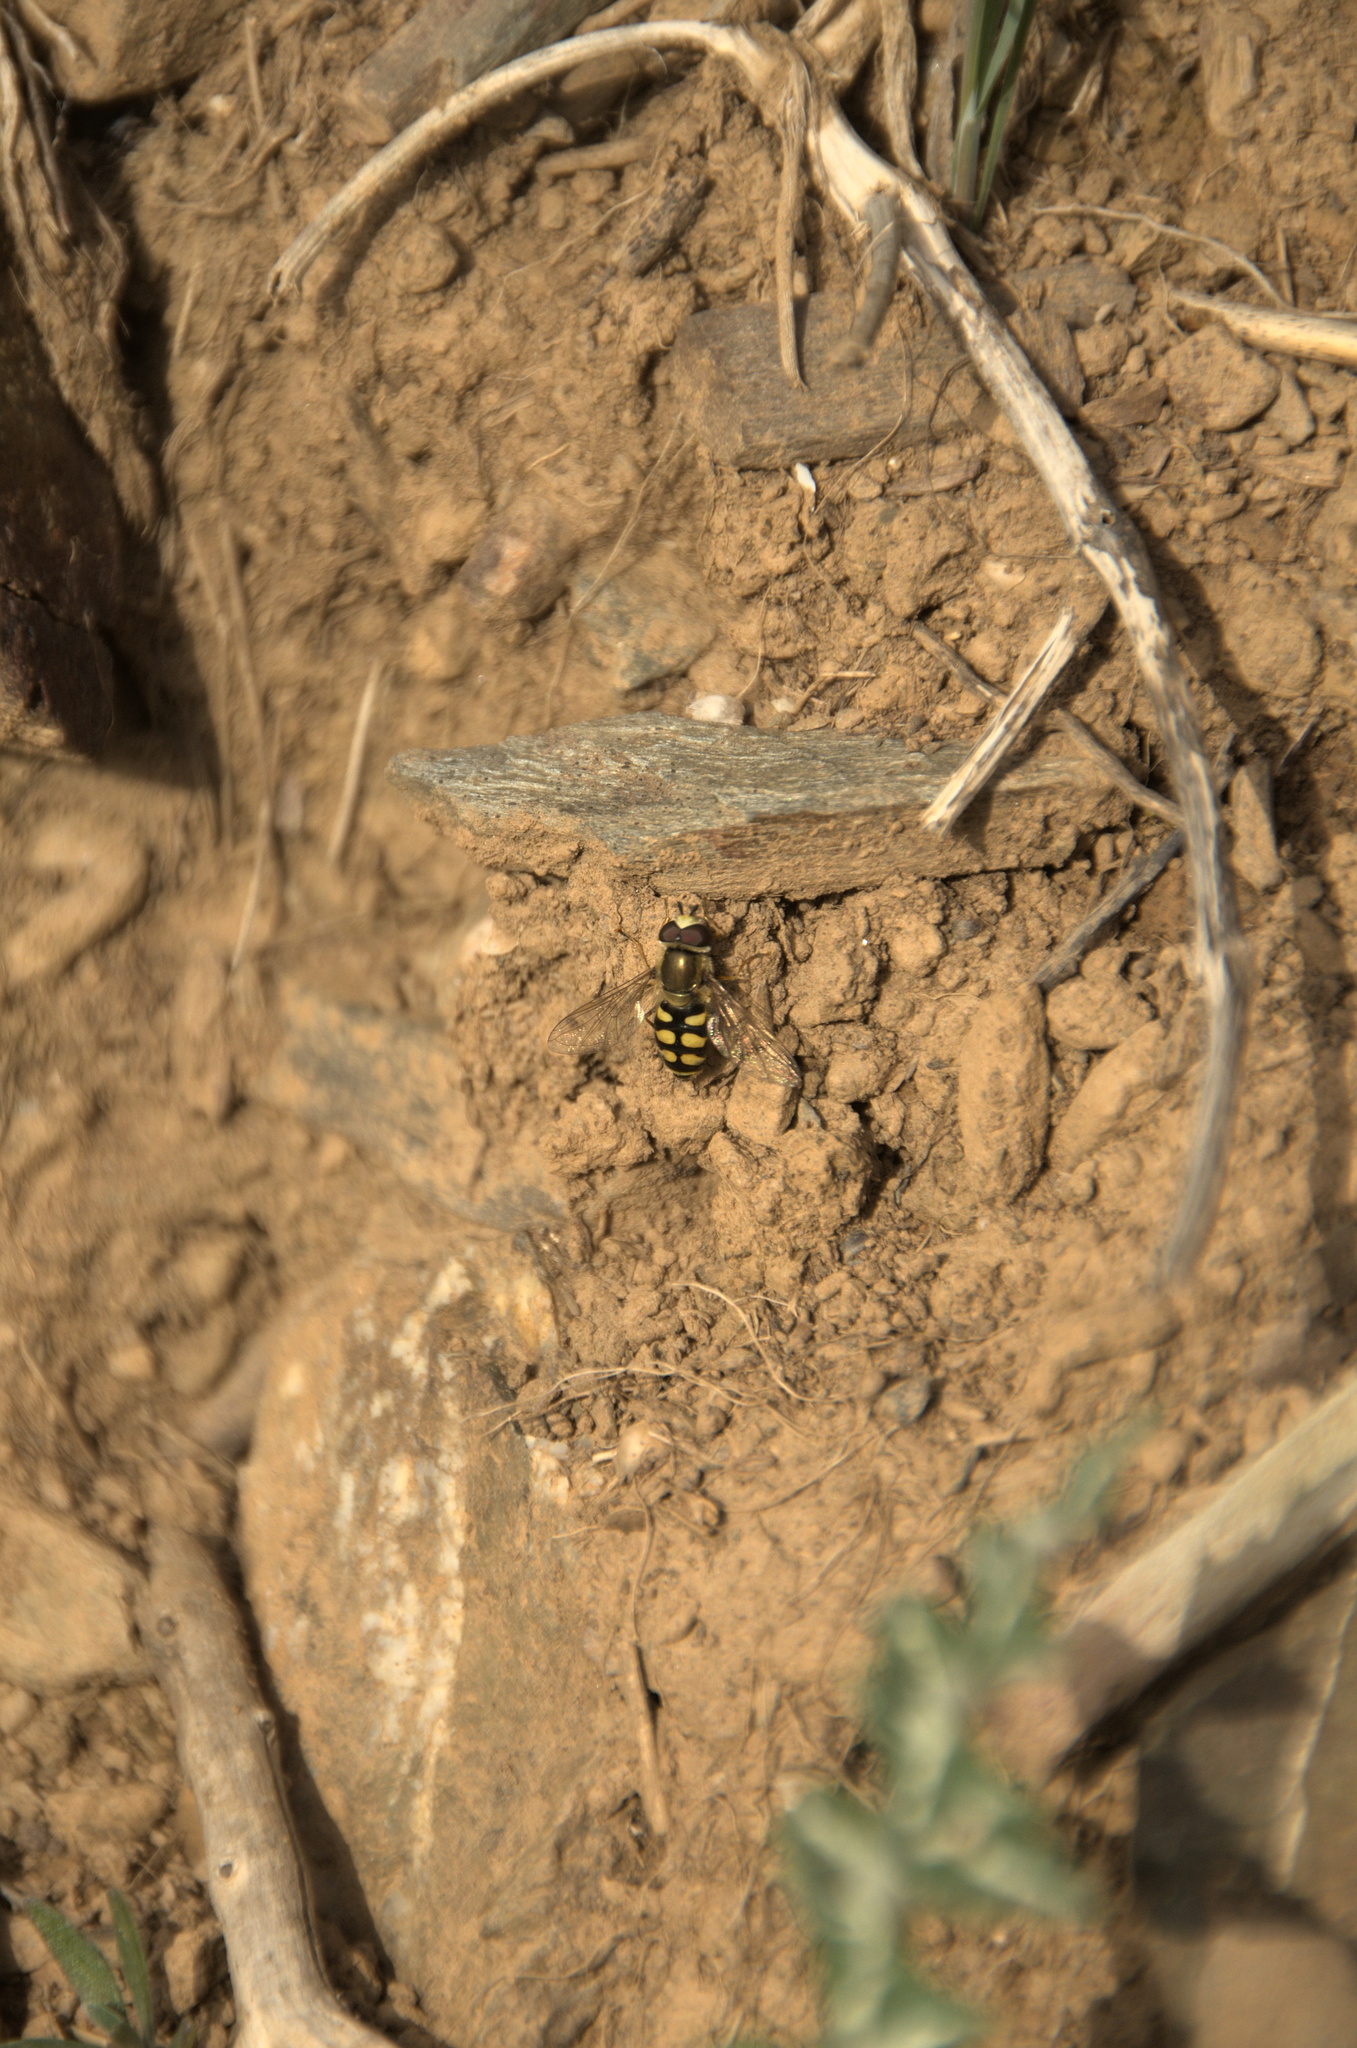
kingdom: Animalia
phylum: Arthropoda
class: Insecta
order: Diptera
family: Syrphidae
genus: Eupeodes
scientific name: Eupeodes corollae
